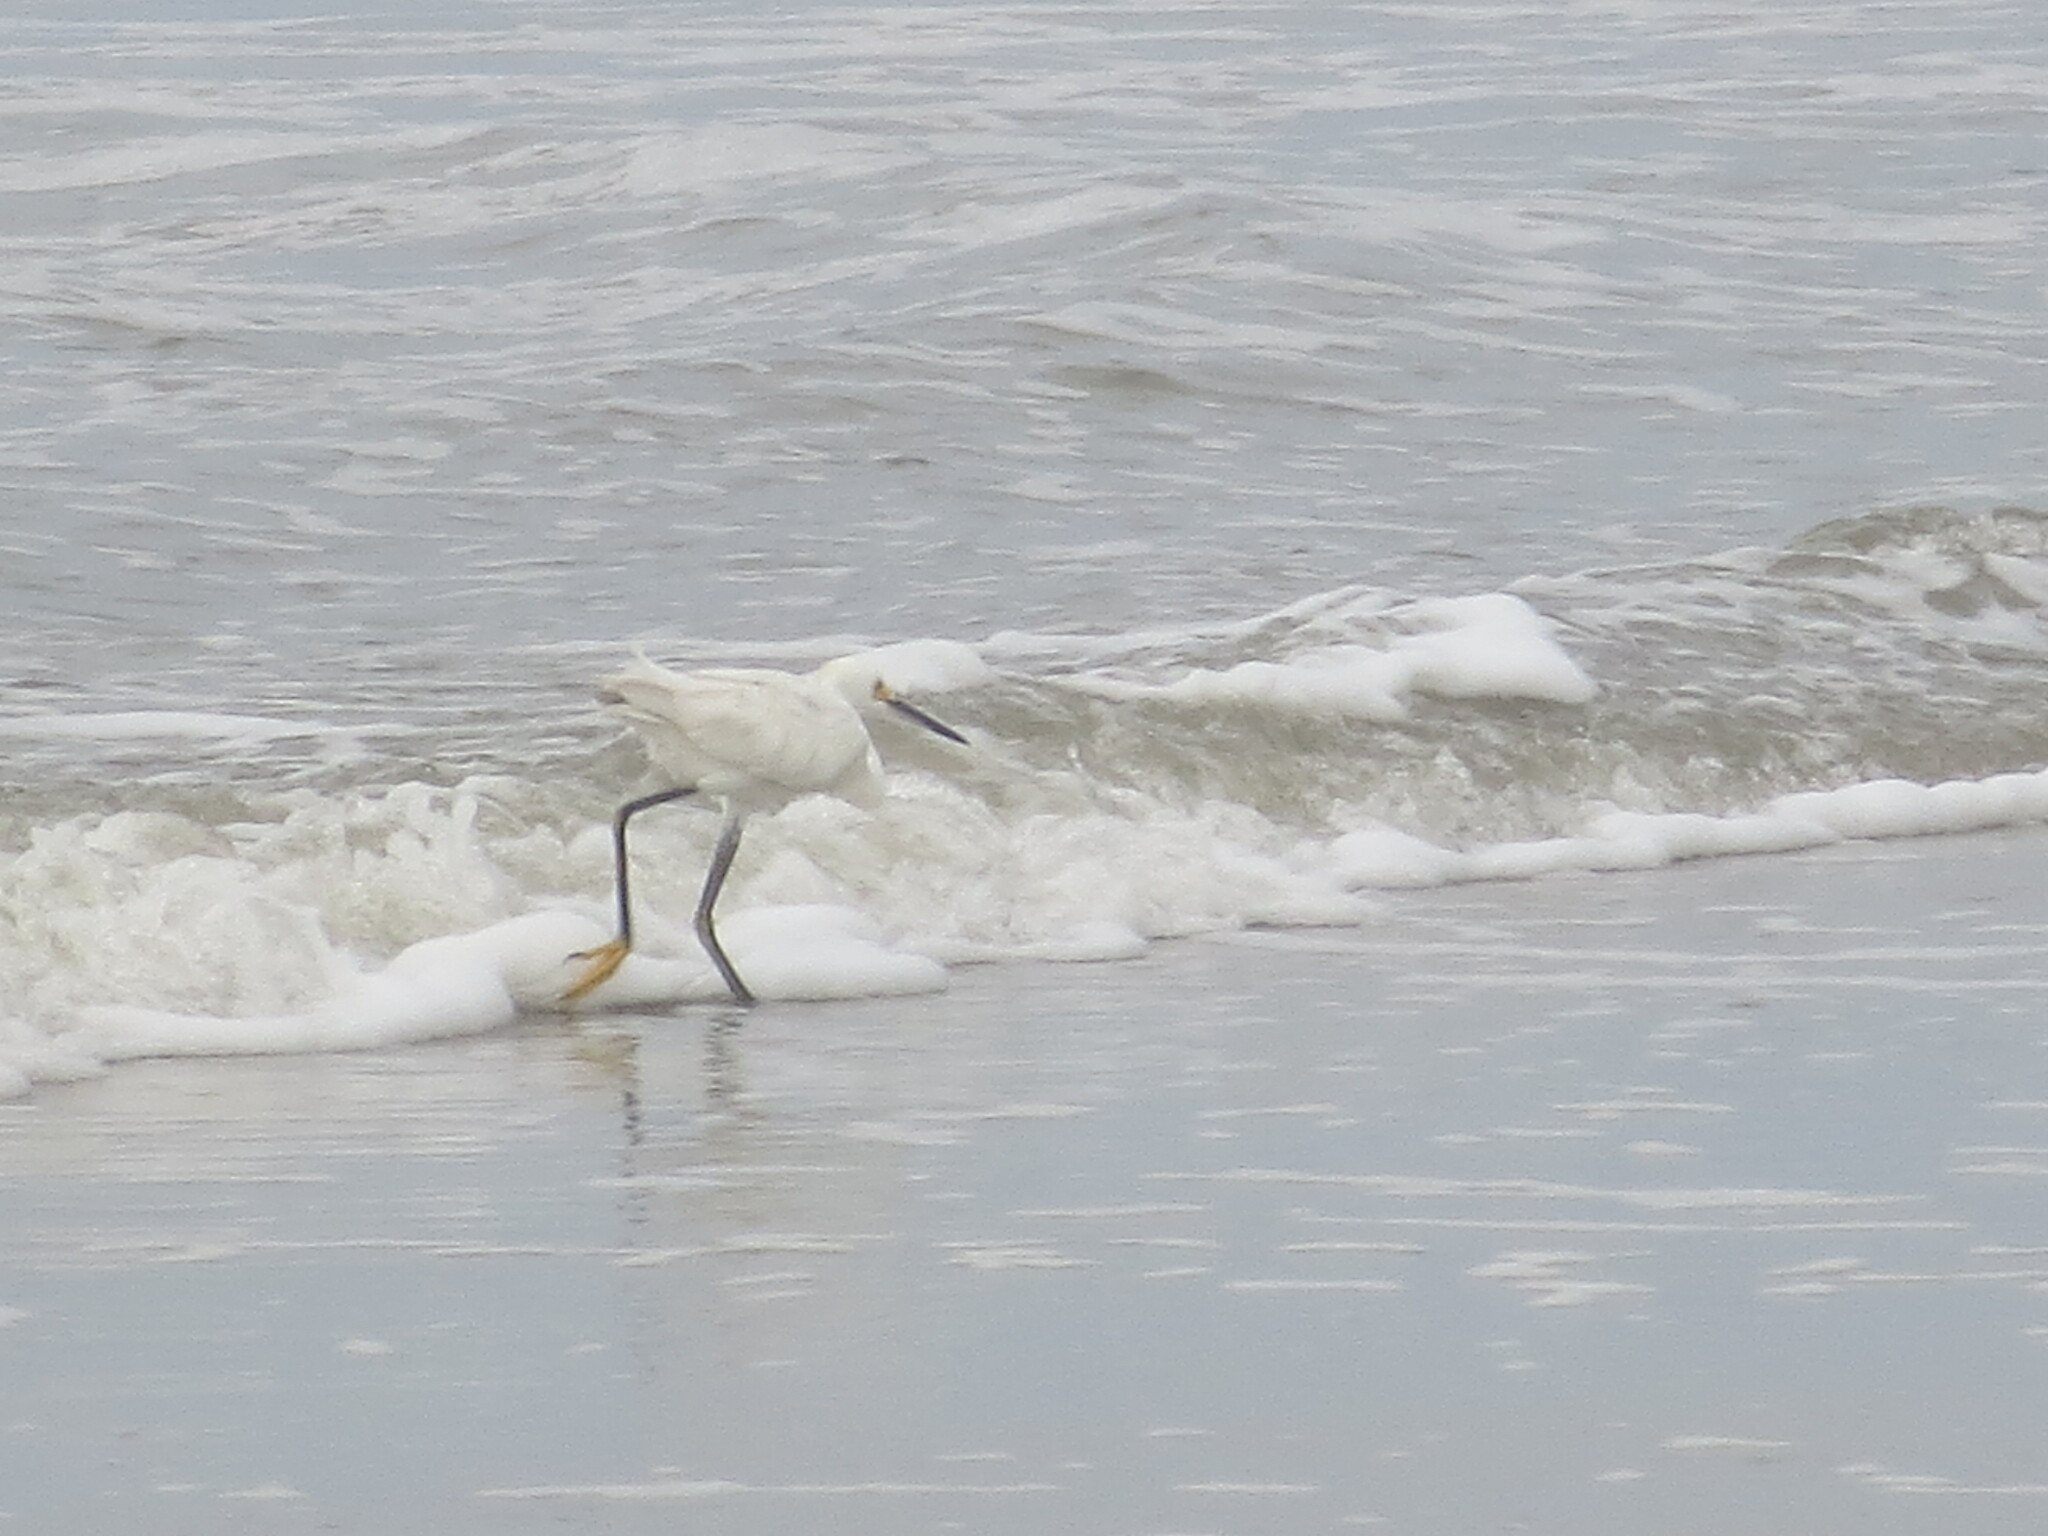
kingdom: Animalia
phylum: Chordata
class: Aves
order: Pelecaniformes
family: Ardeidae
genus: Egretta
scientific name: Egretta thula
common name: Snowy egret
